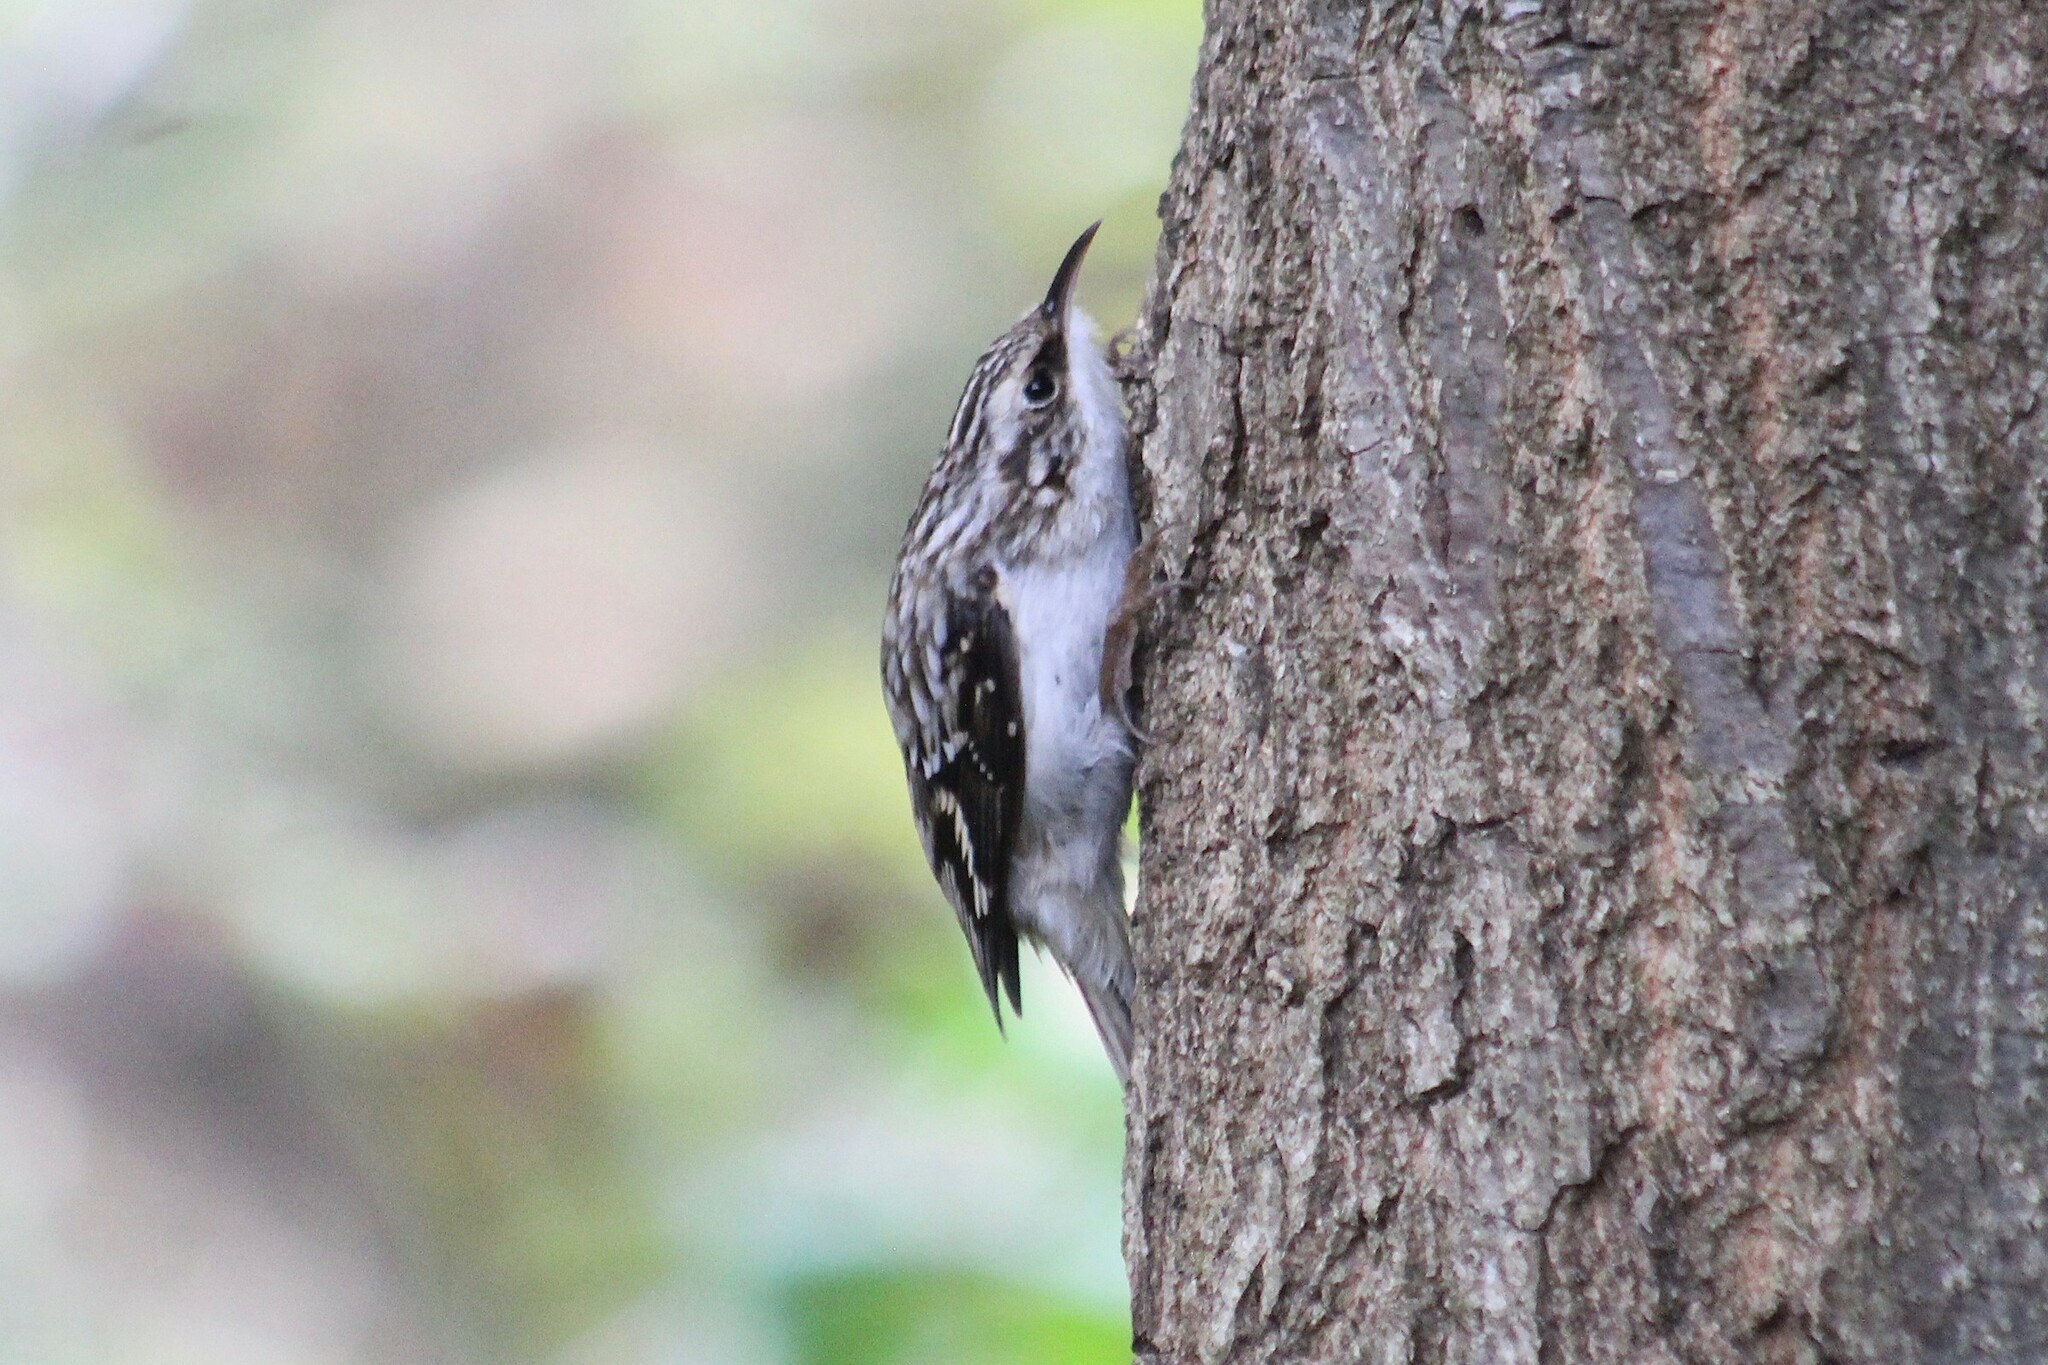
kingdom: Animalia
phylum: Chordata
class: Aves
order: Passeriformes
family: Certhiidae
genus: Certhia
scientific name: Certhia americana
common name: Brown creeper
